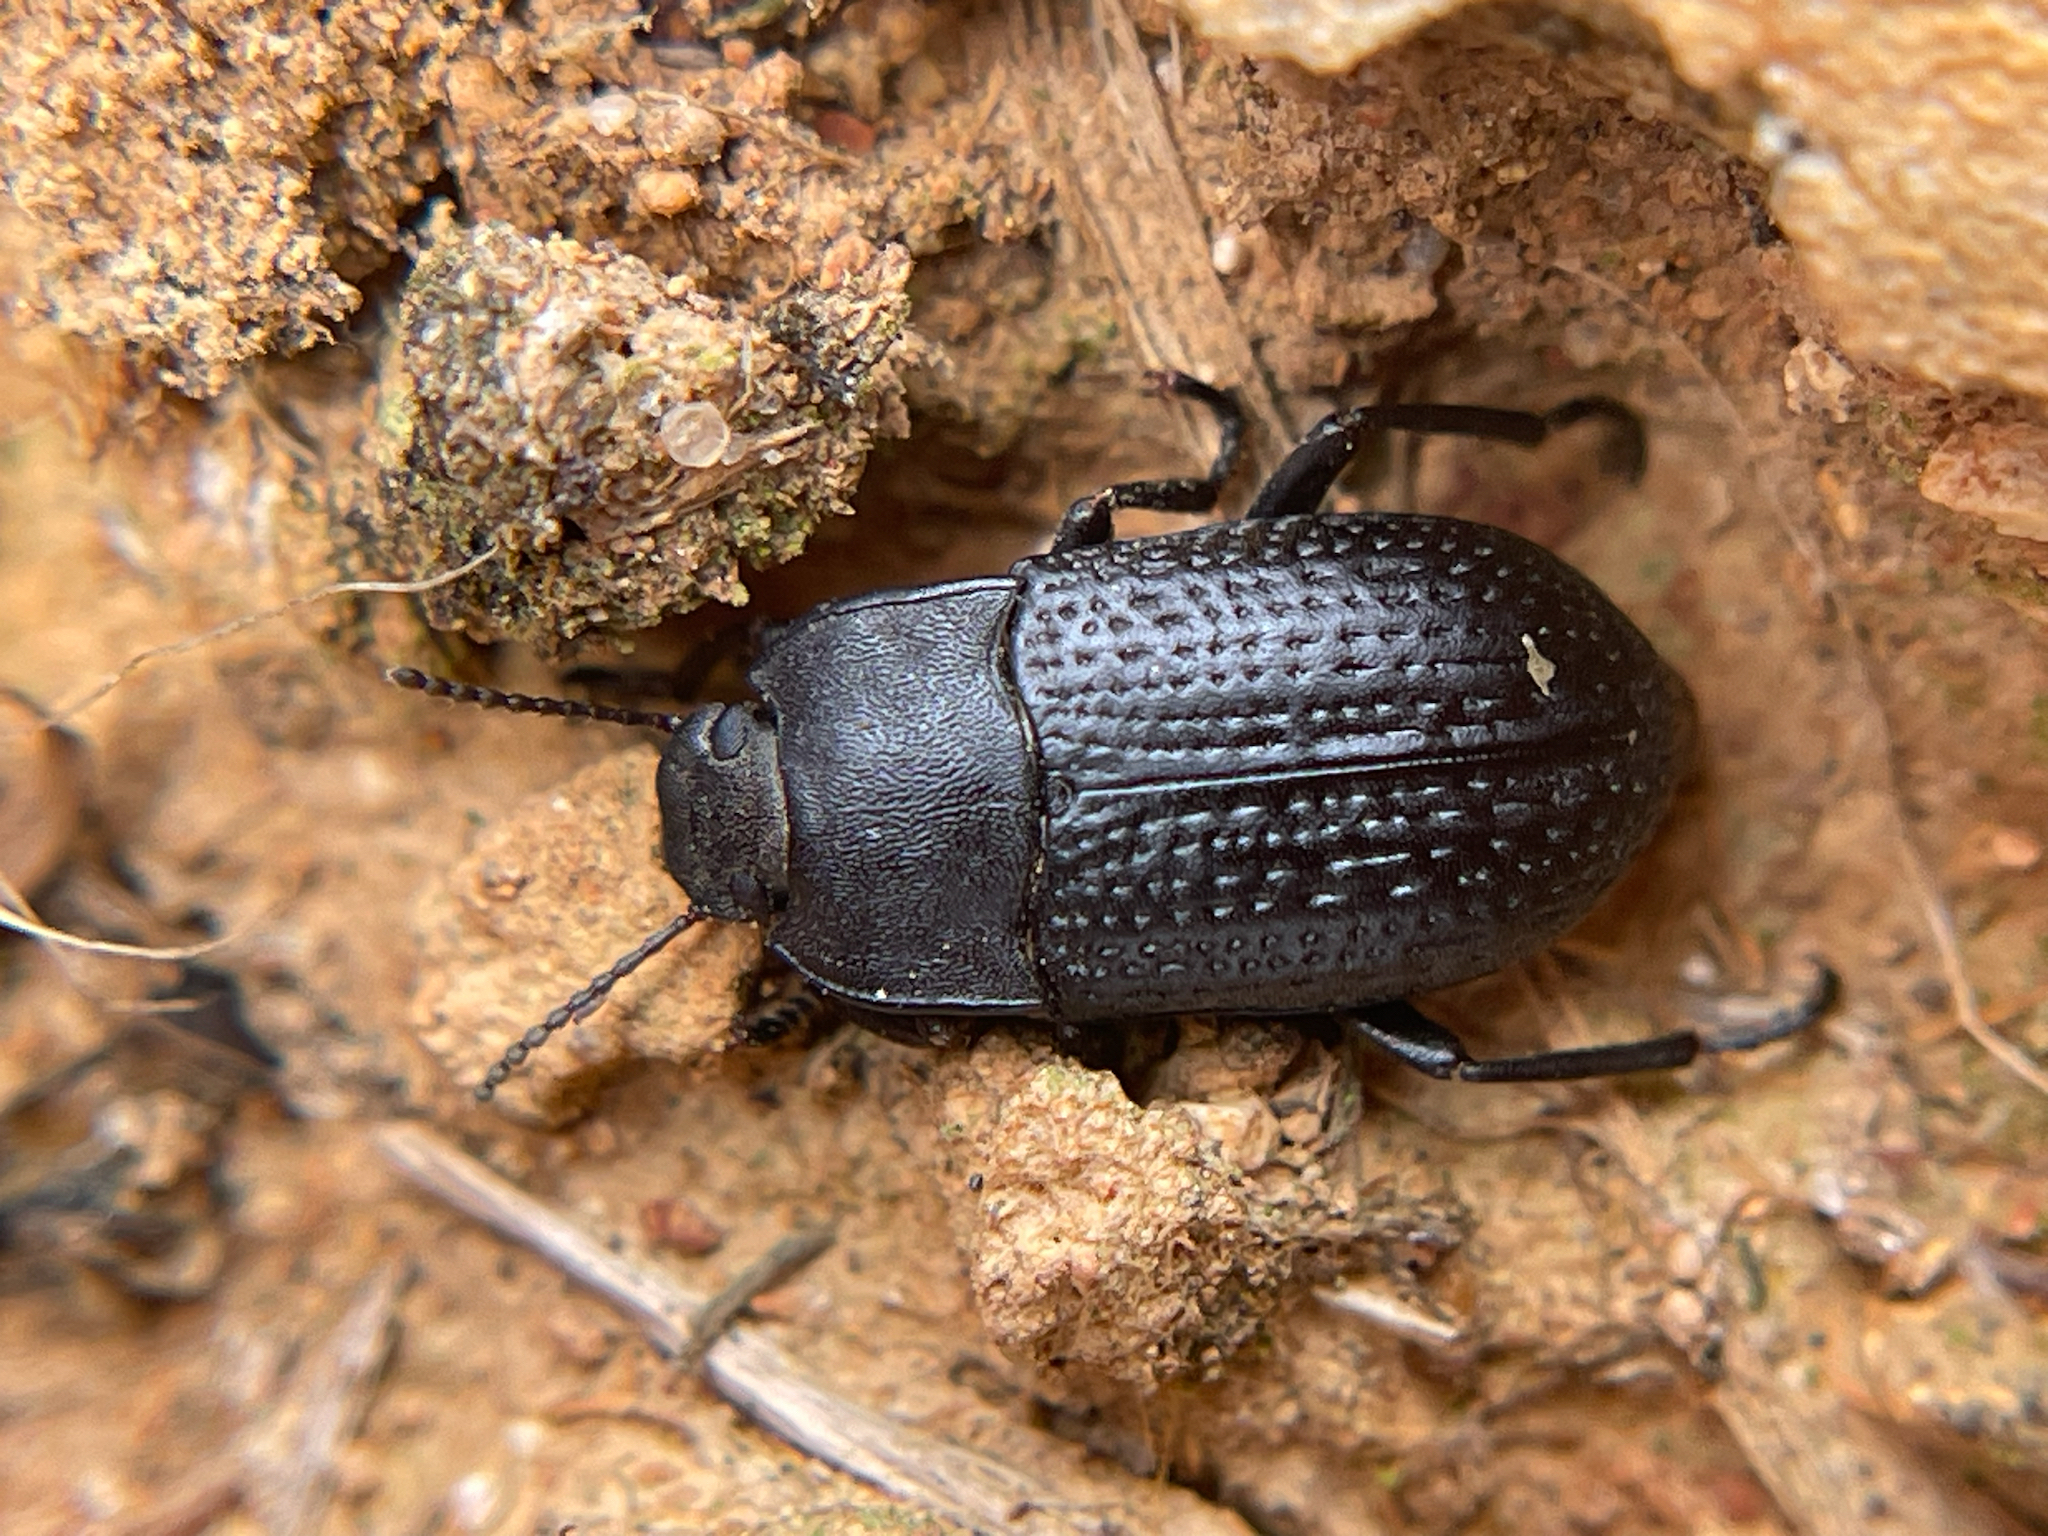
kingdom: Animalia
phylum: Arthropoda
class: Insecta
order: Coleoptera
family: Tenebrionidae
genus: Asiopus
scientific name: Asiopus
